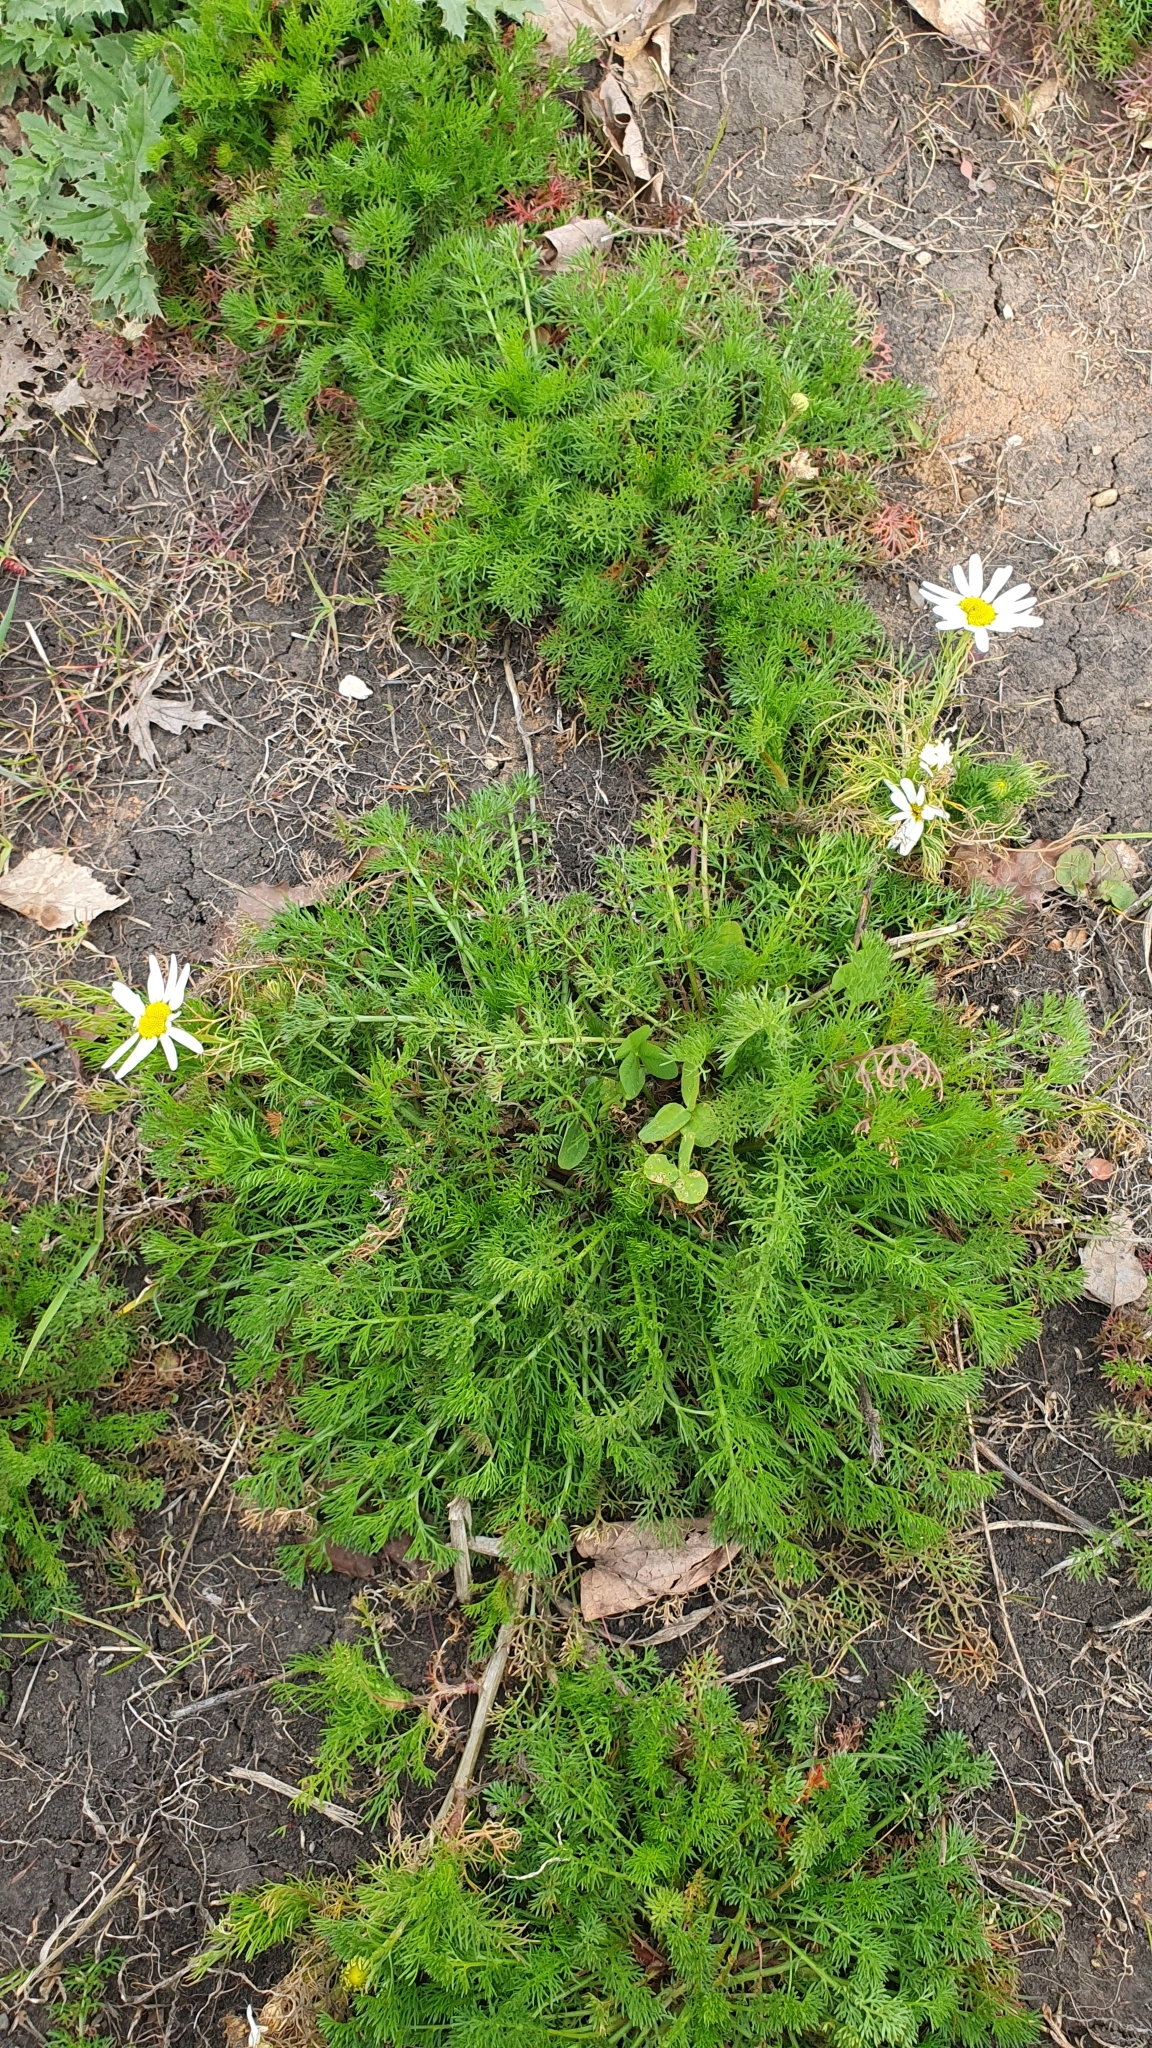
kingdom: Plantae
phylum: Tracheophyta
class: Magnoliopsida
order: Asterales
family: Asteraceae
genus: Tripleurospermum
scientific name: Tripleurospermum inodorum
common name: Scentless mayweed
